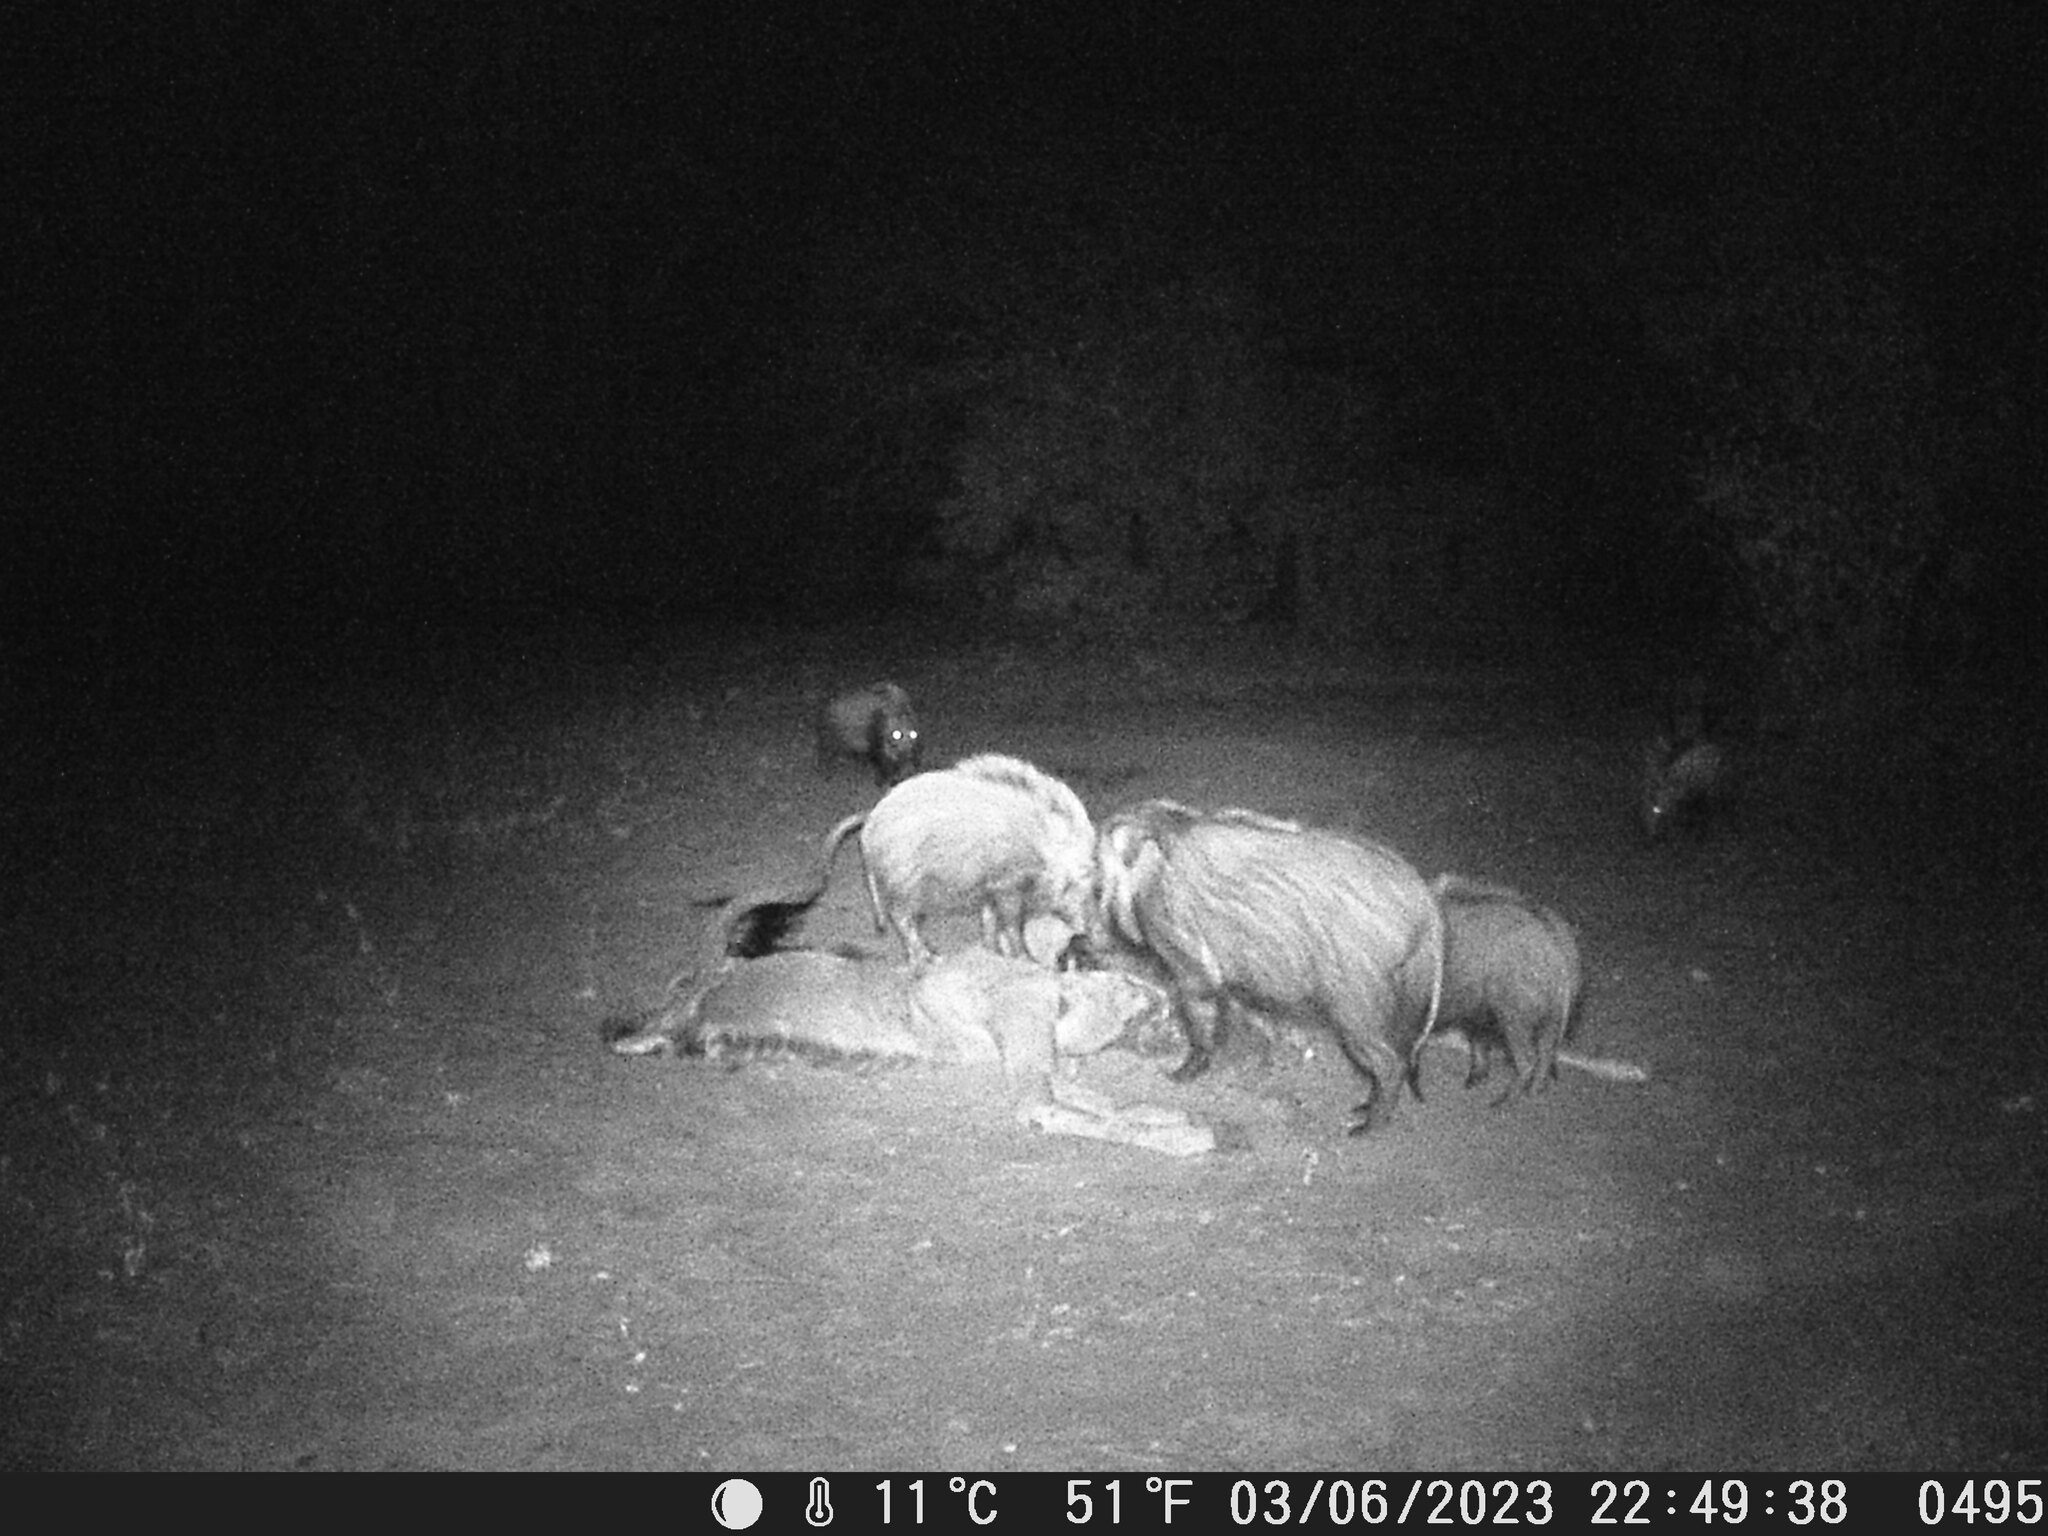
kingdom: Animalia
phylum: Chordata
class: Mammalia
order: Artiodactyla
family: Suidae
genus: Potamochoerus
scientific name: Potamochoerus larvatus
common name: Bushpig
